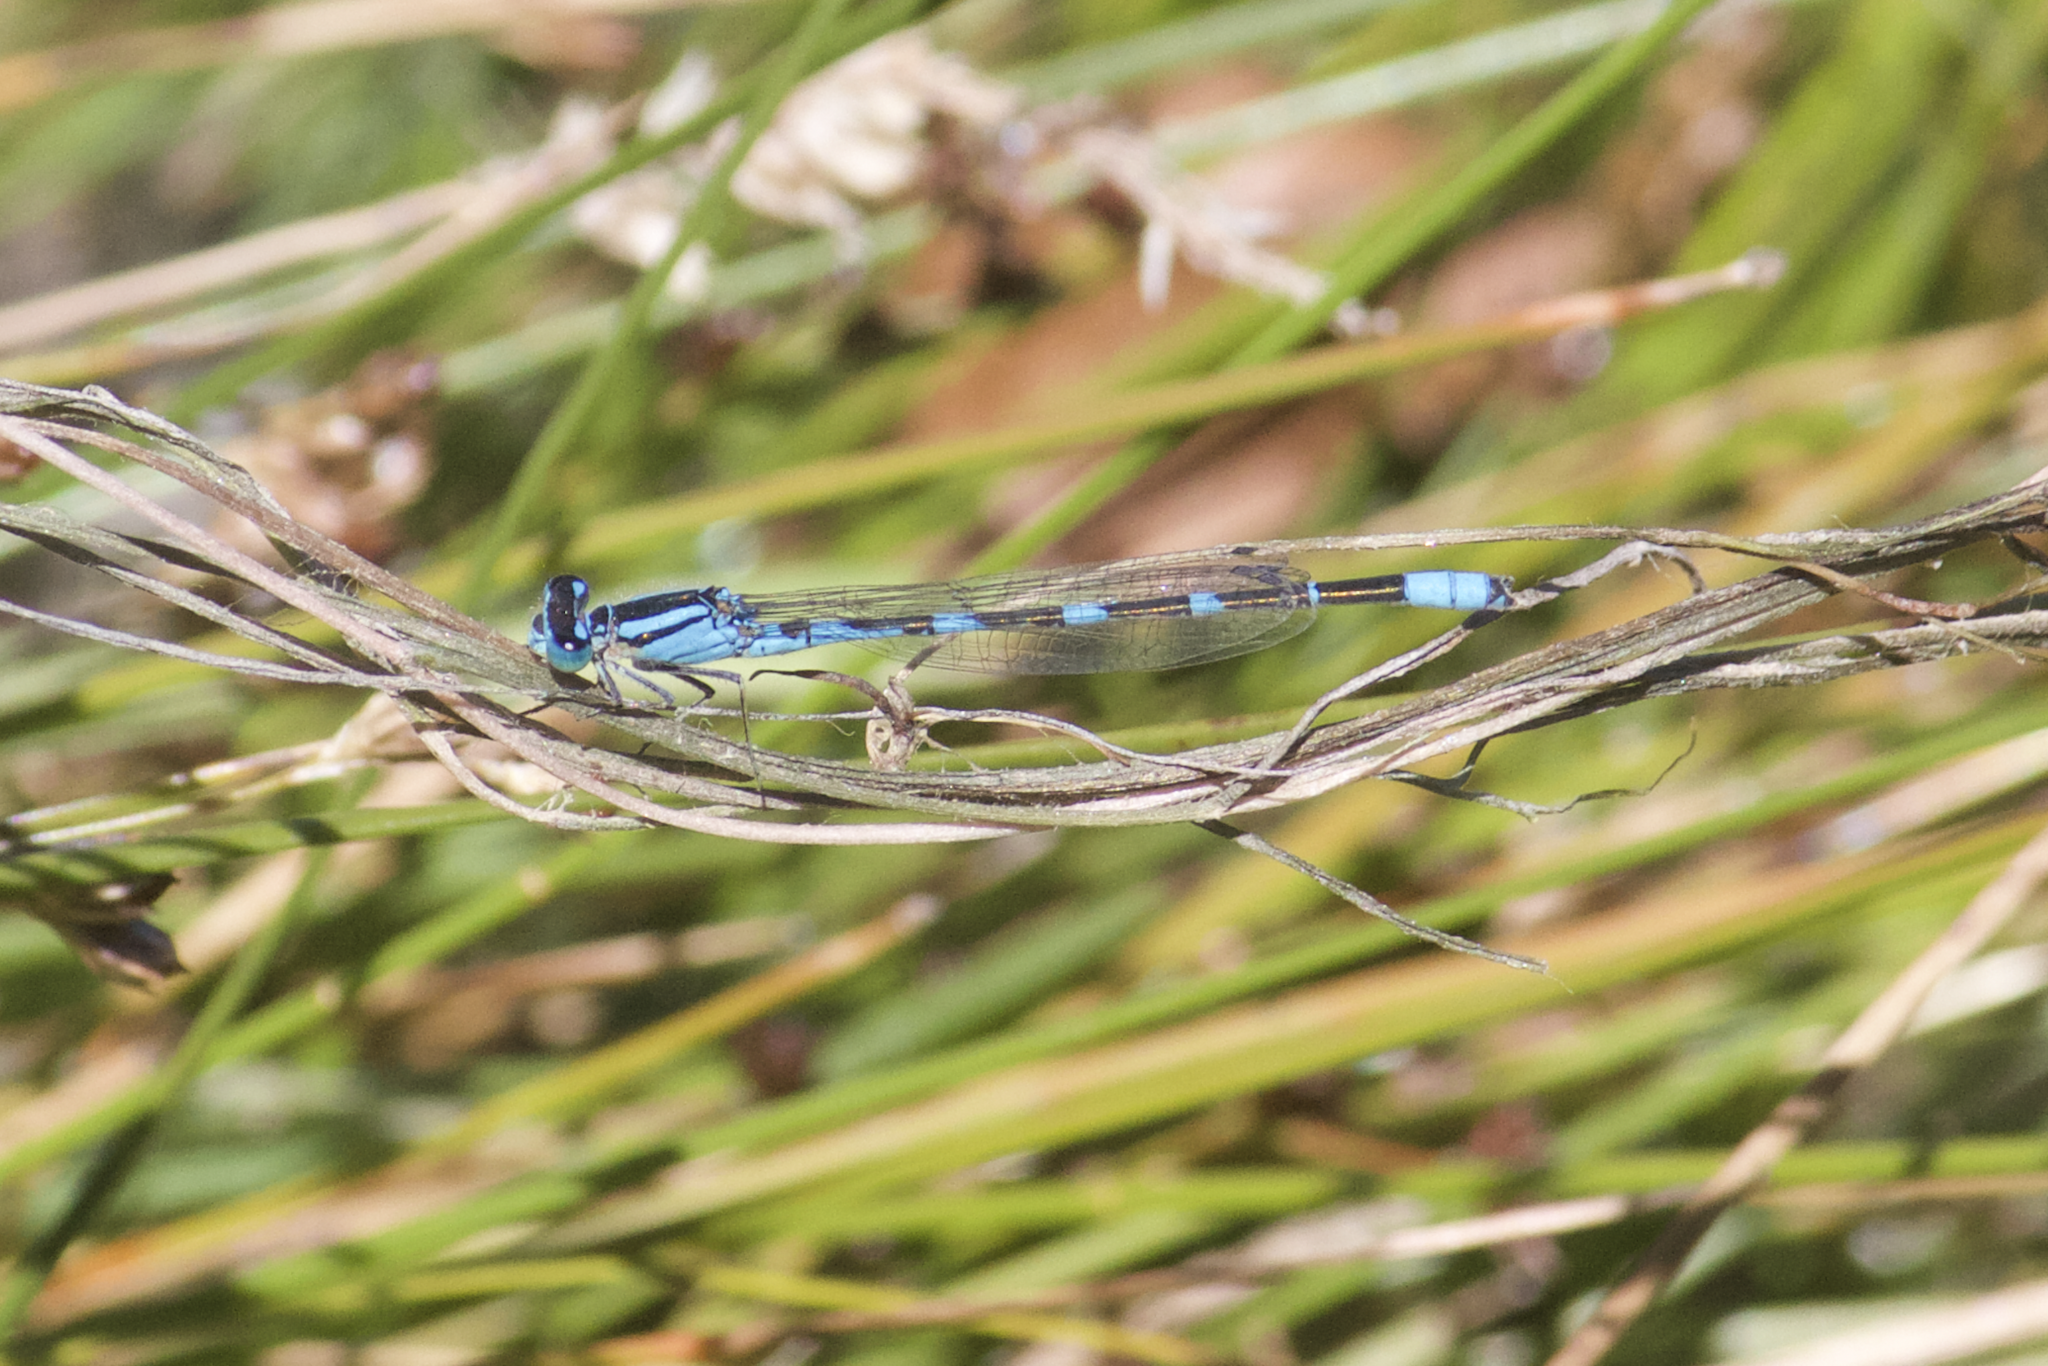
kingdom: Animalia
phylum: Arthropoda
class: Insecta
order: Odonata
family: Coenagrionidae
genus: Enallagma
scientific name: Enallagma carunculatum
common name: Tule bluet
